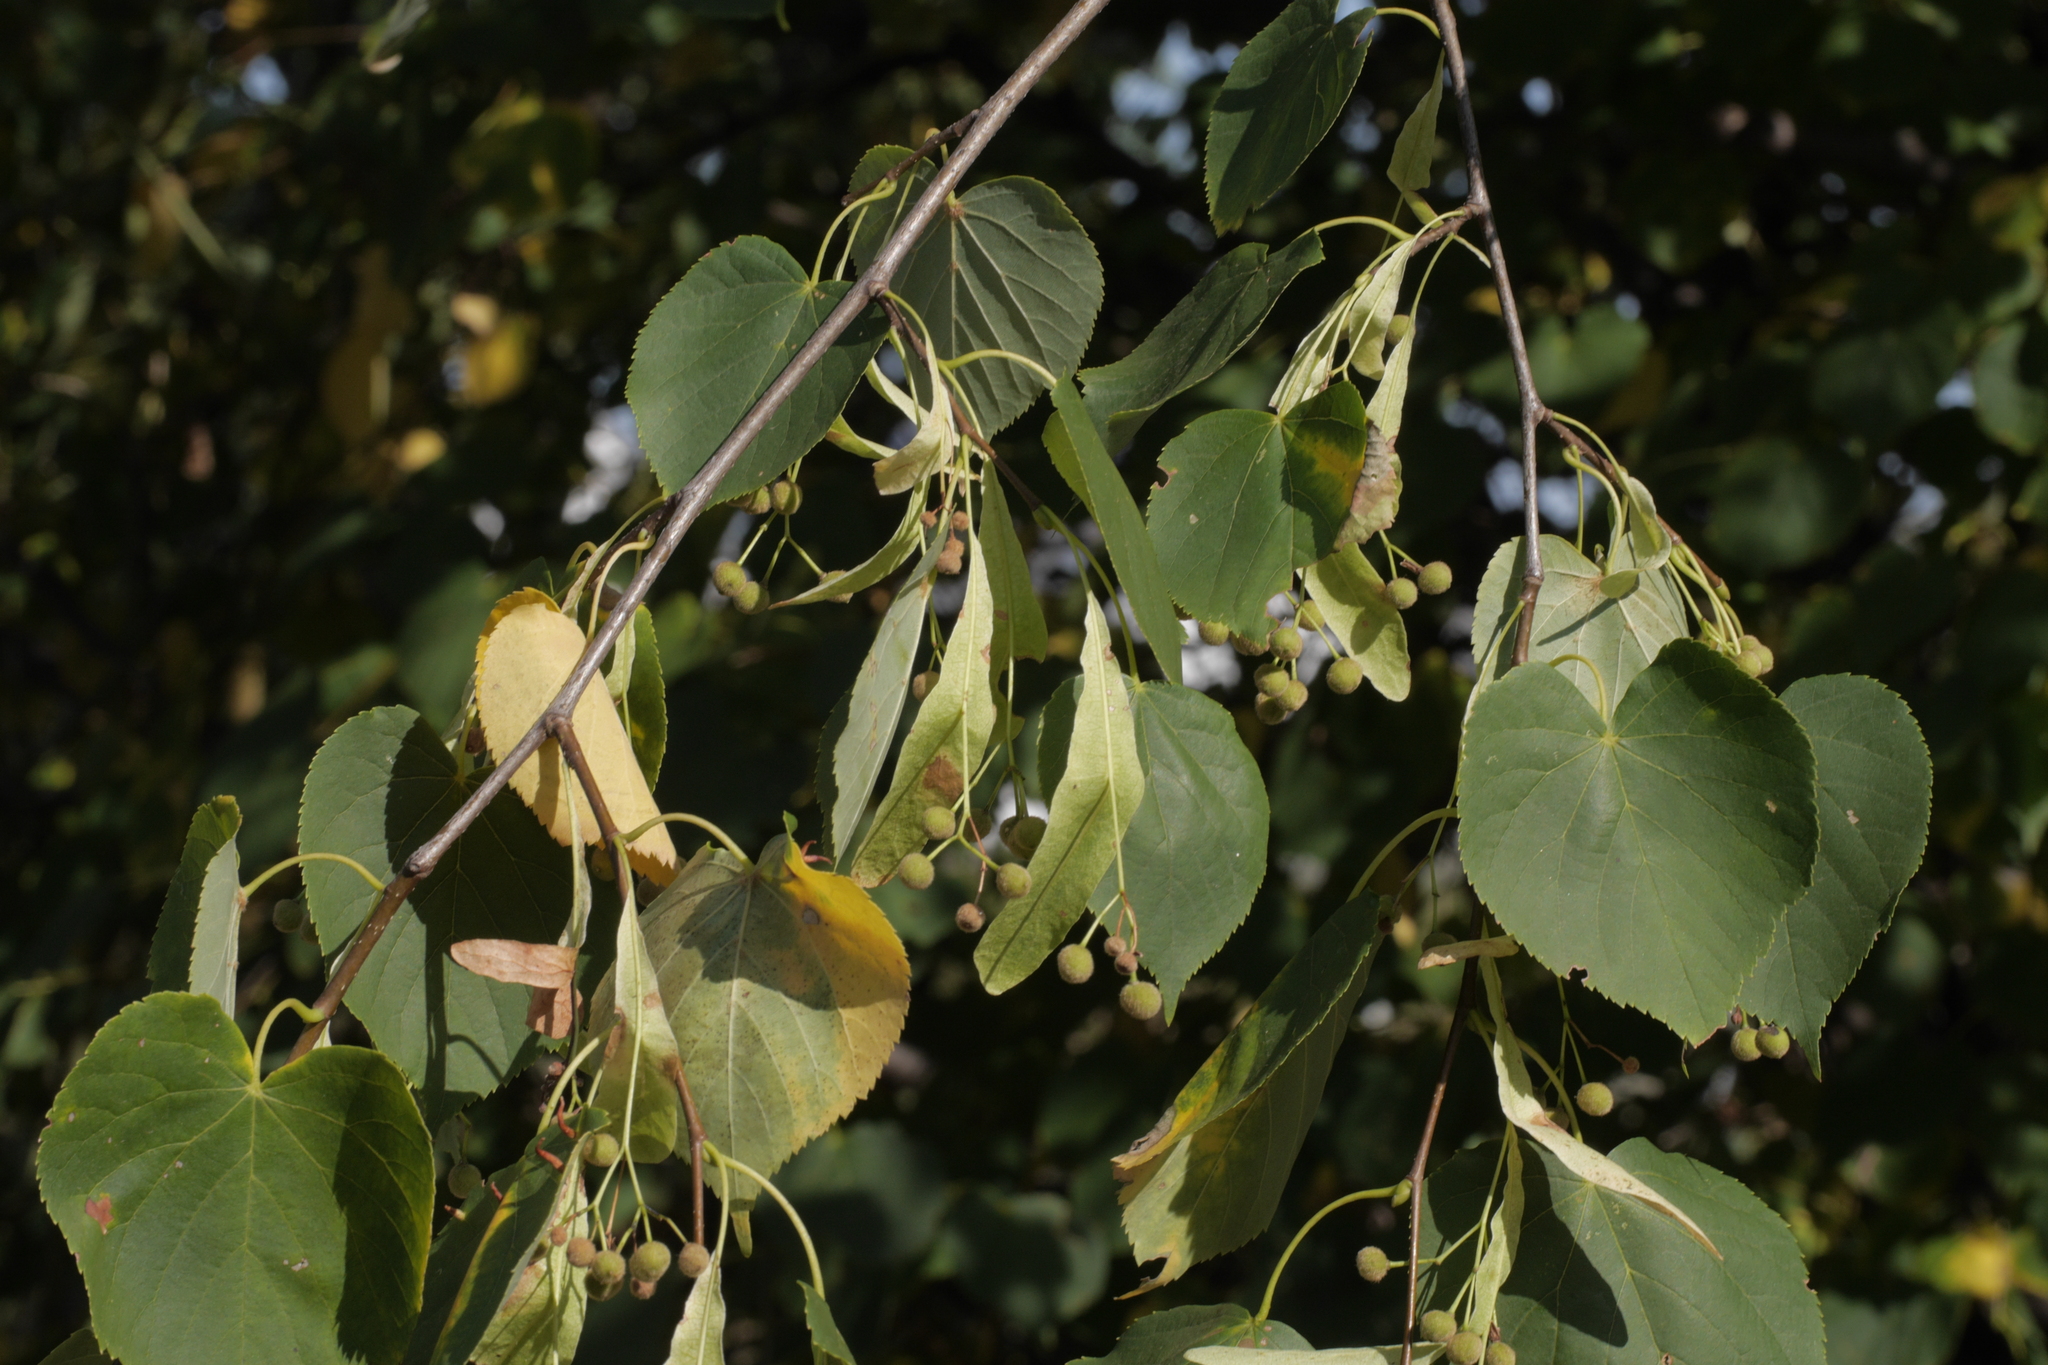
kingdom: Plantae
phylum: Tracheophyta
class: Magnoliopsida
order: Malvales
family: Malvaceae
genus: Tilia
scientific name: Tilia cordata
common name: Small-leaved lime
